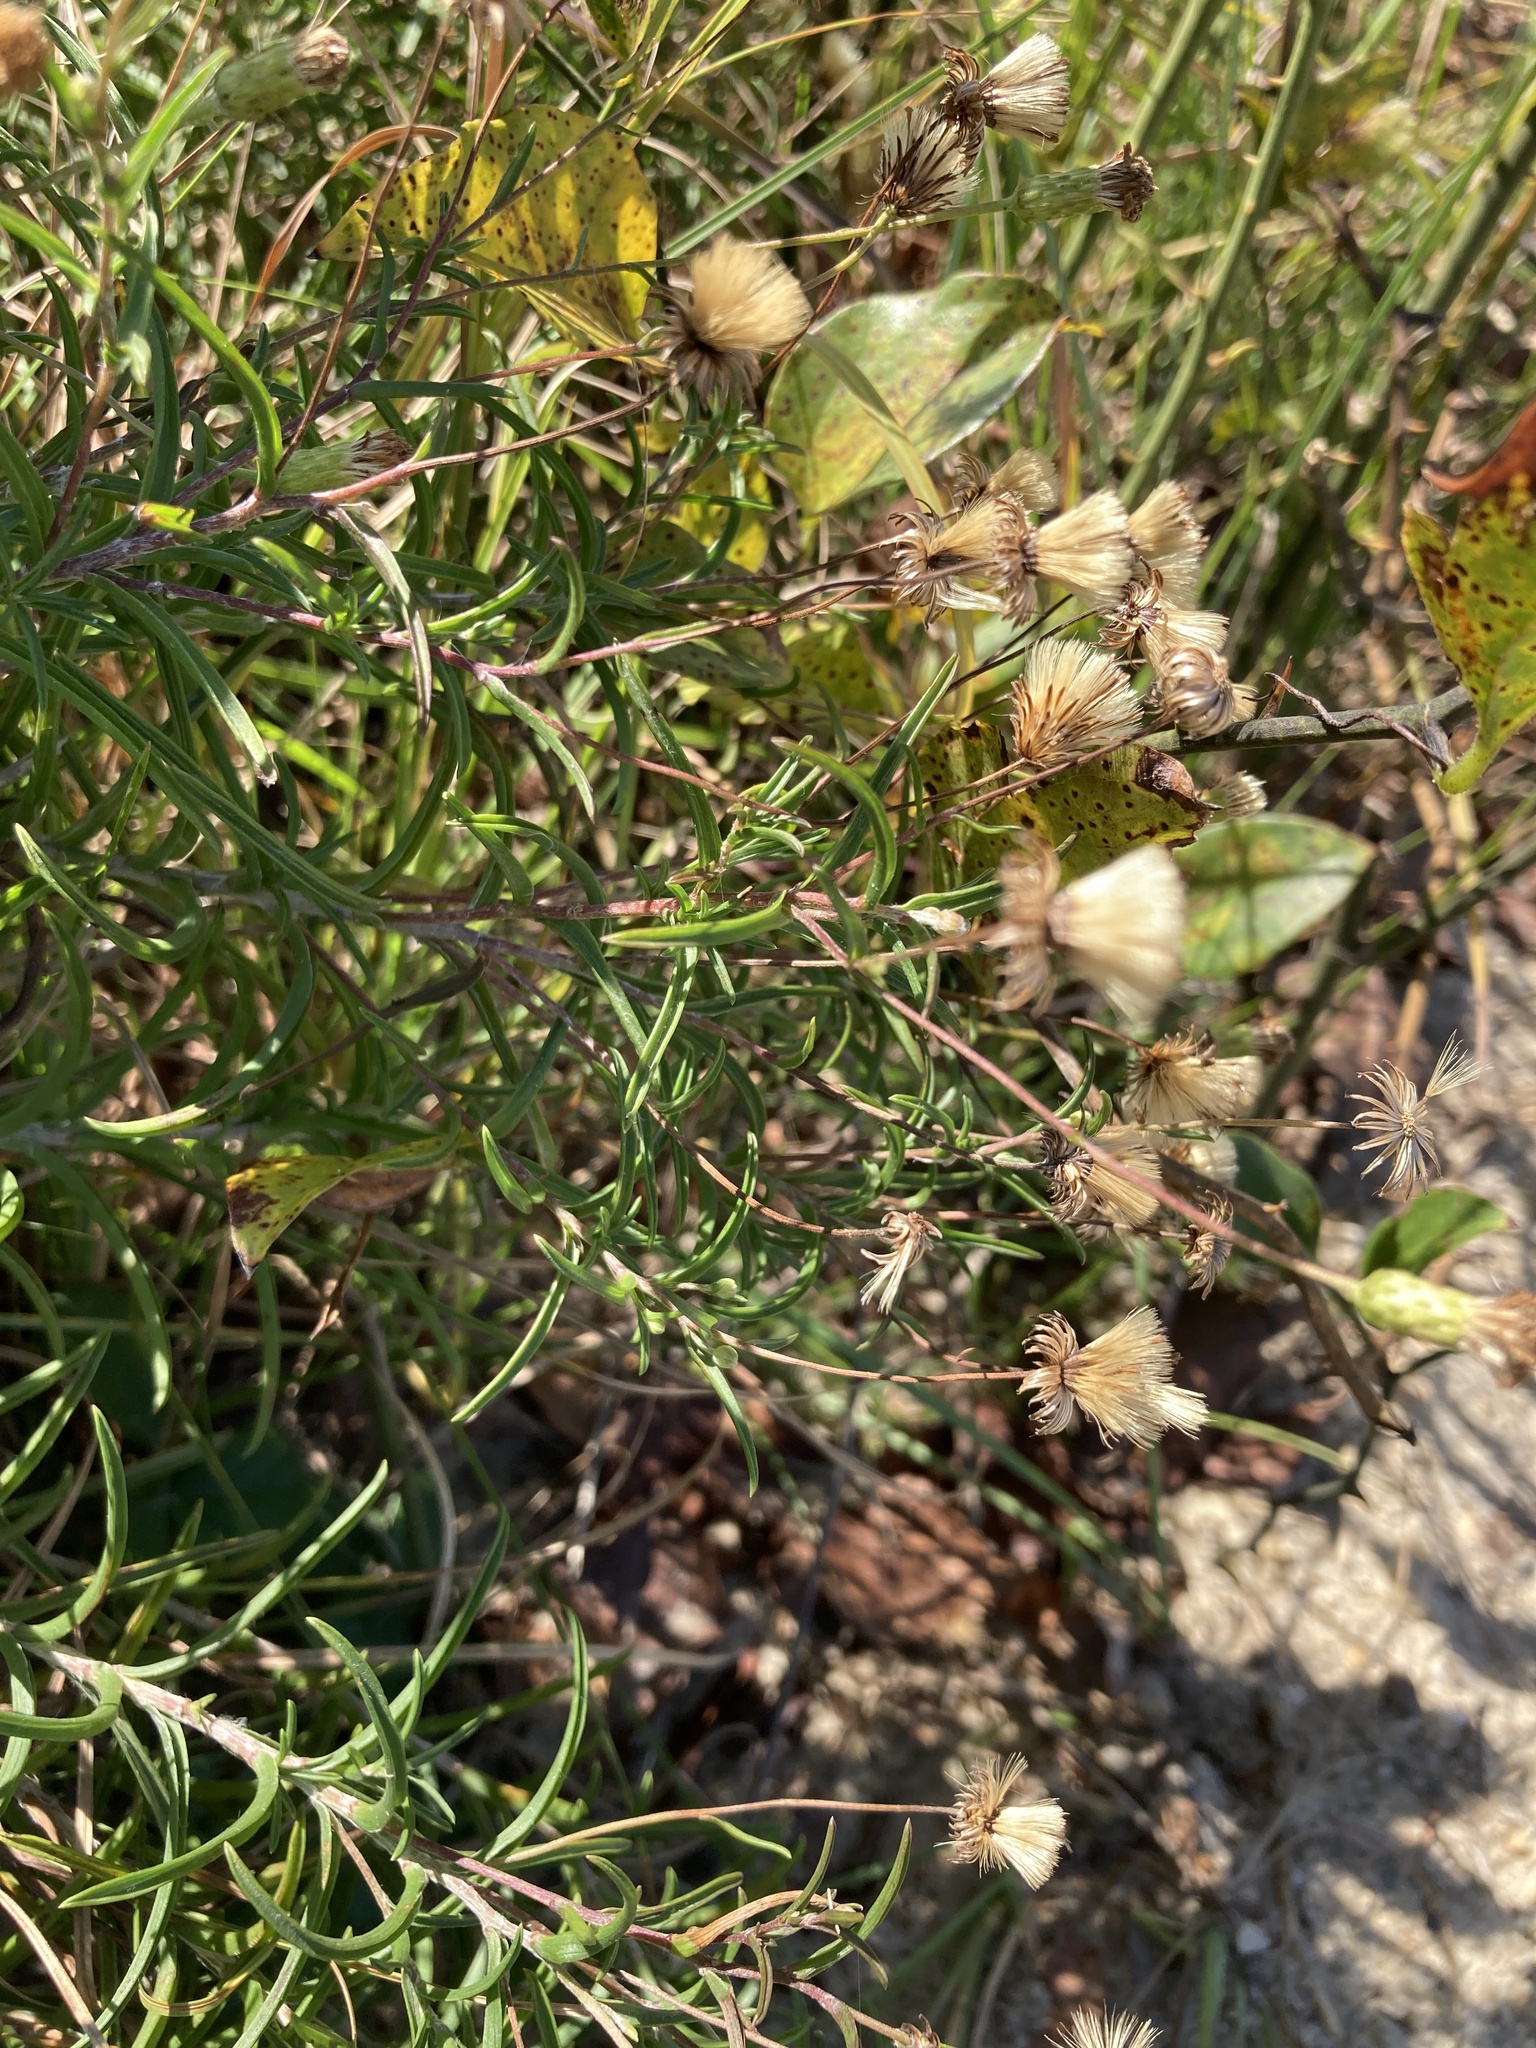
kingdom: Plantae
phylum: Tracheophyta
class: Magnoliopsida
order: Asterales
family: Asteraceae
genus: Pityopsis
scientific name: Pityopsis falcata
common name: Sickle-leaved goldenaster
